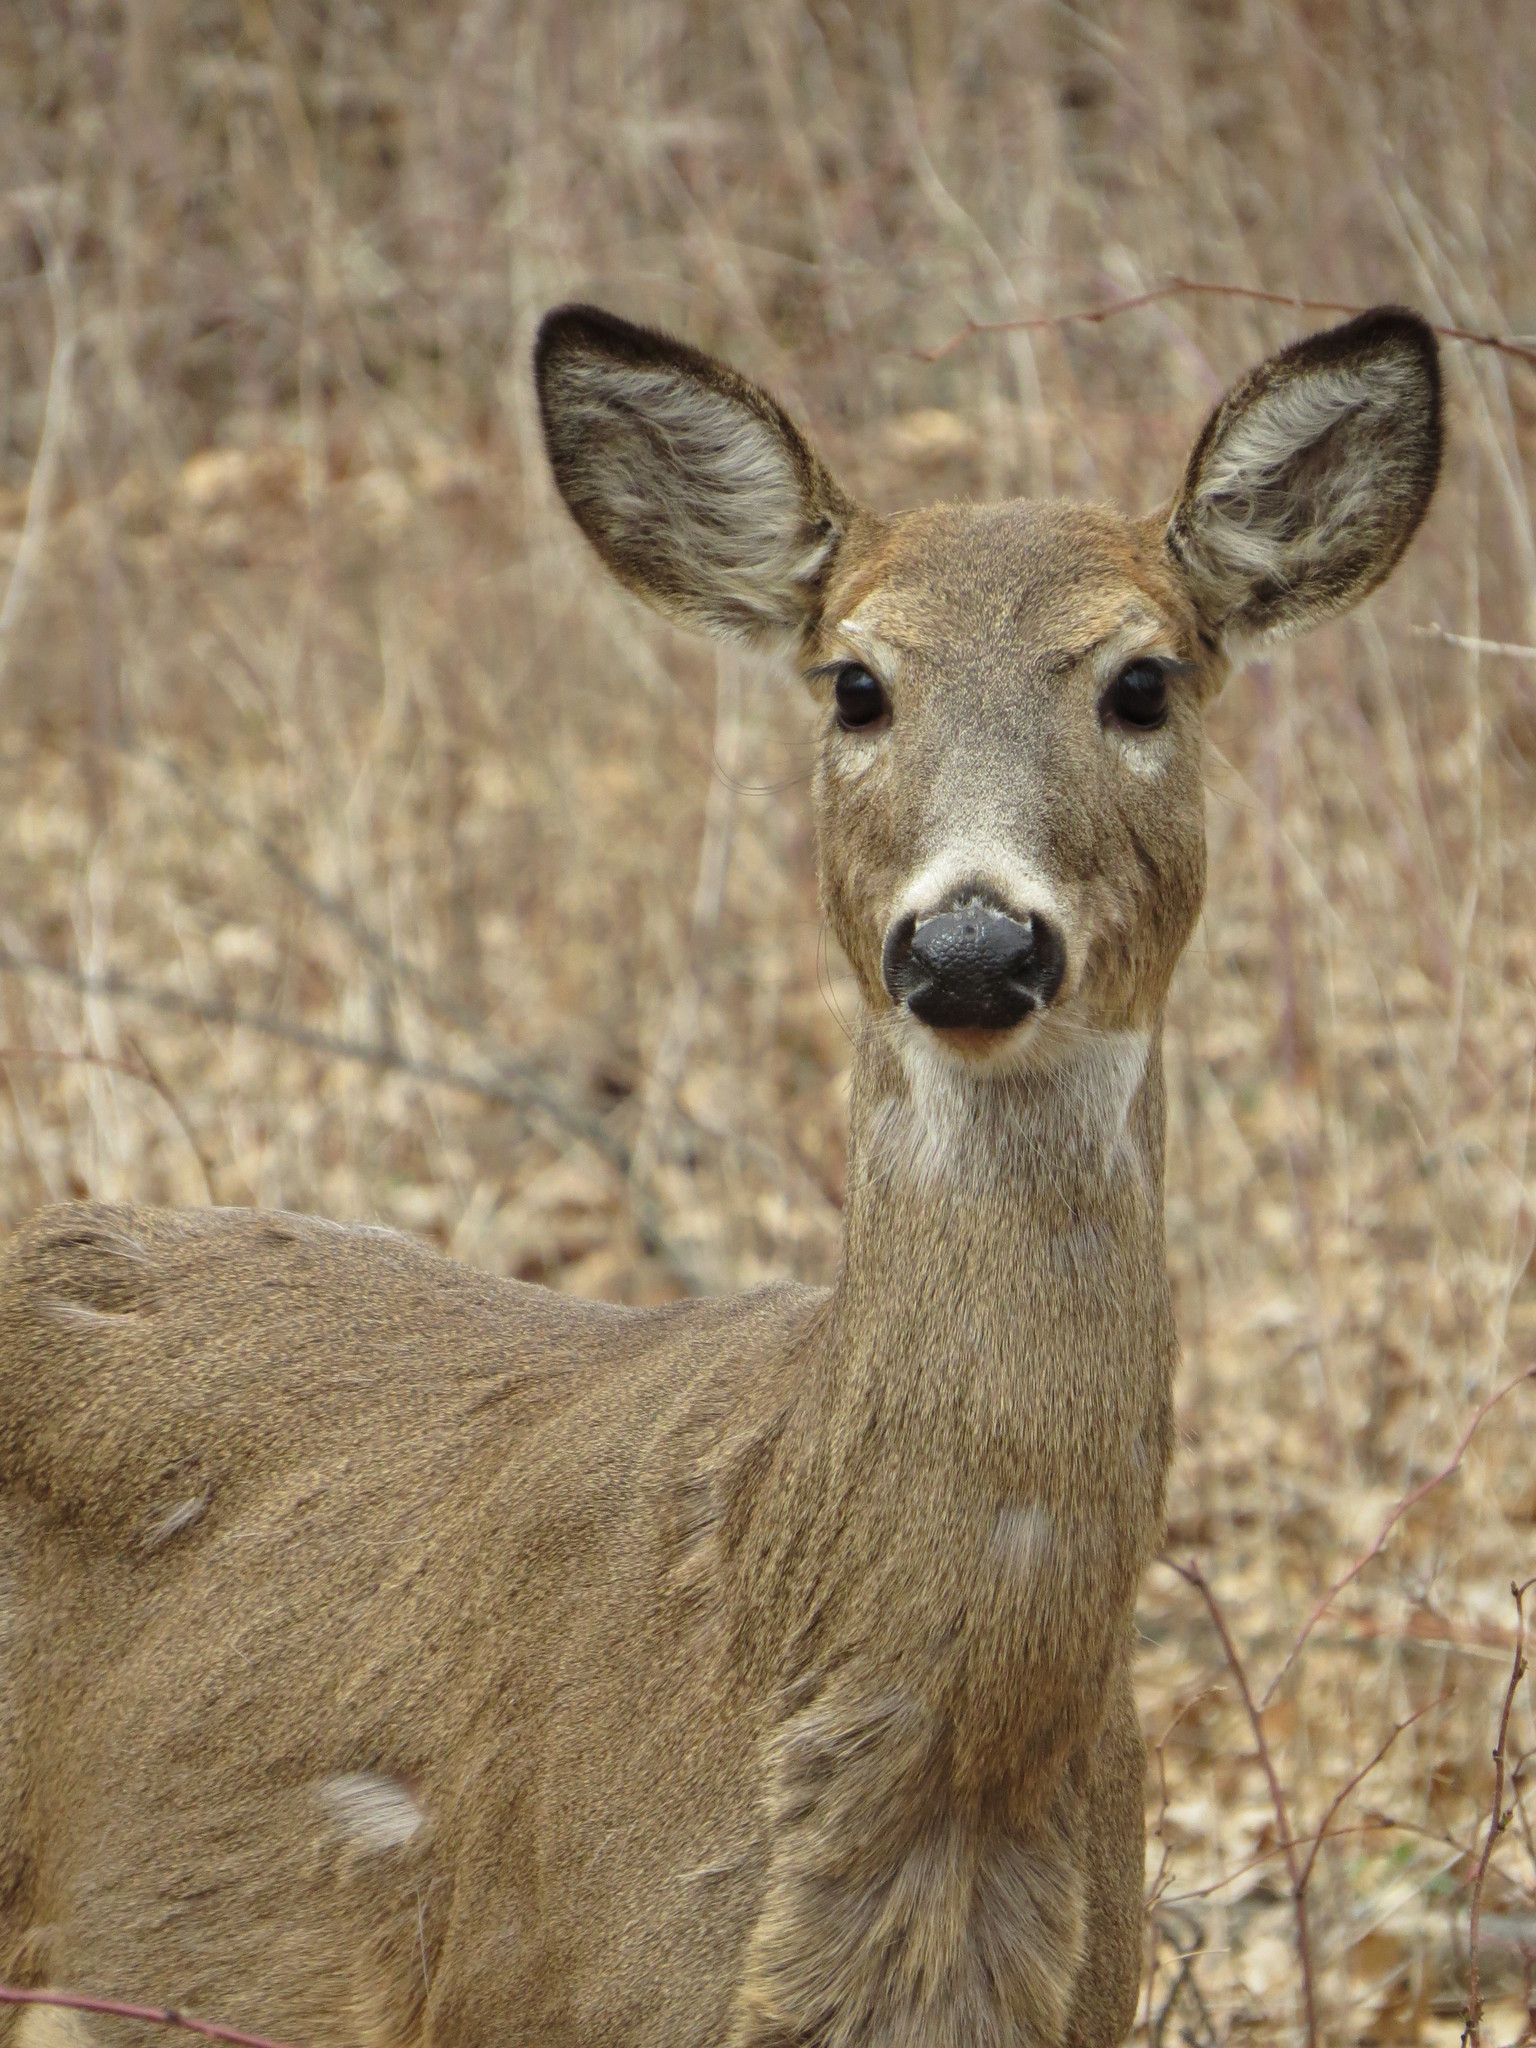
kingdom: Animalia
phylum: Chordata
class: Mammalia
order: Artiodactyla
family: Cervidae
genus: Odocoileus
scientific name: Odocoileus virginianus
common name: White-tailed deer
